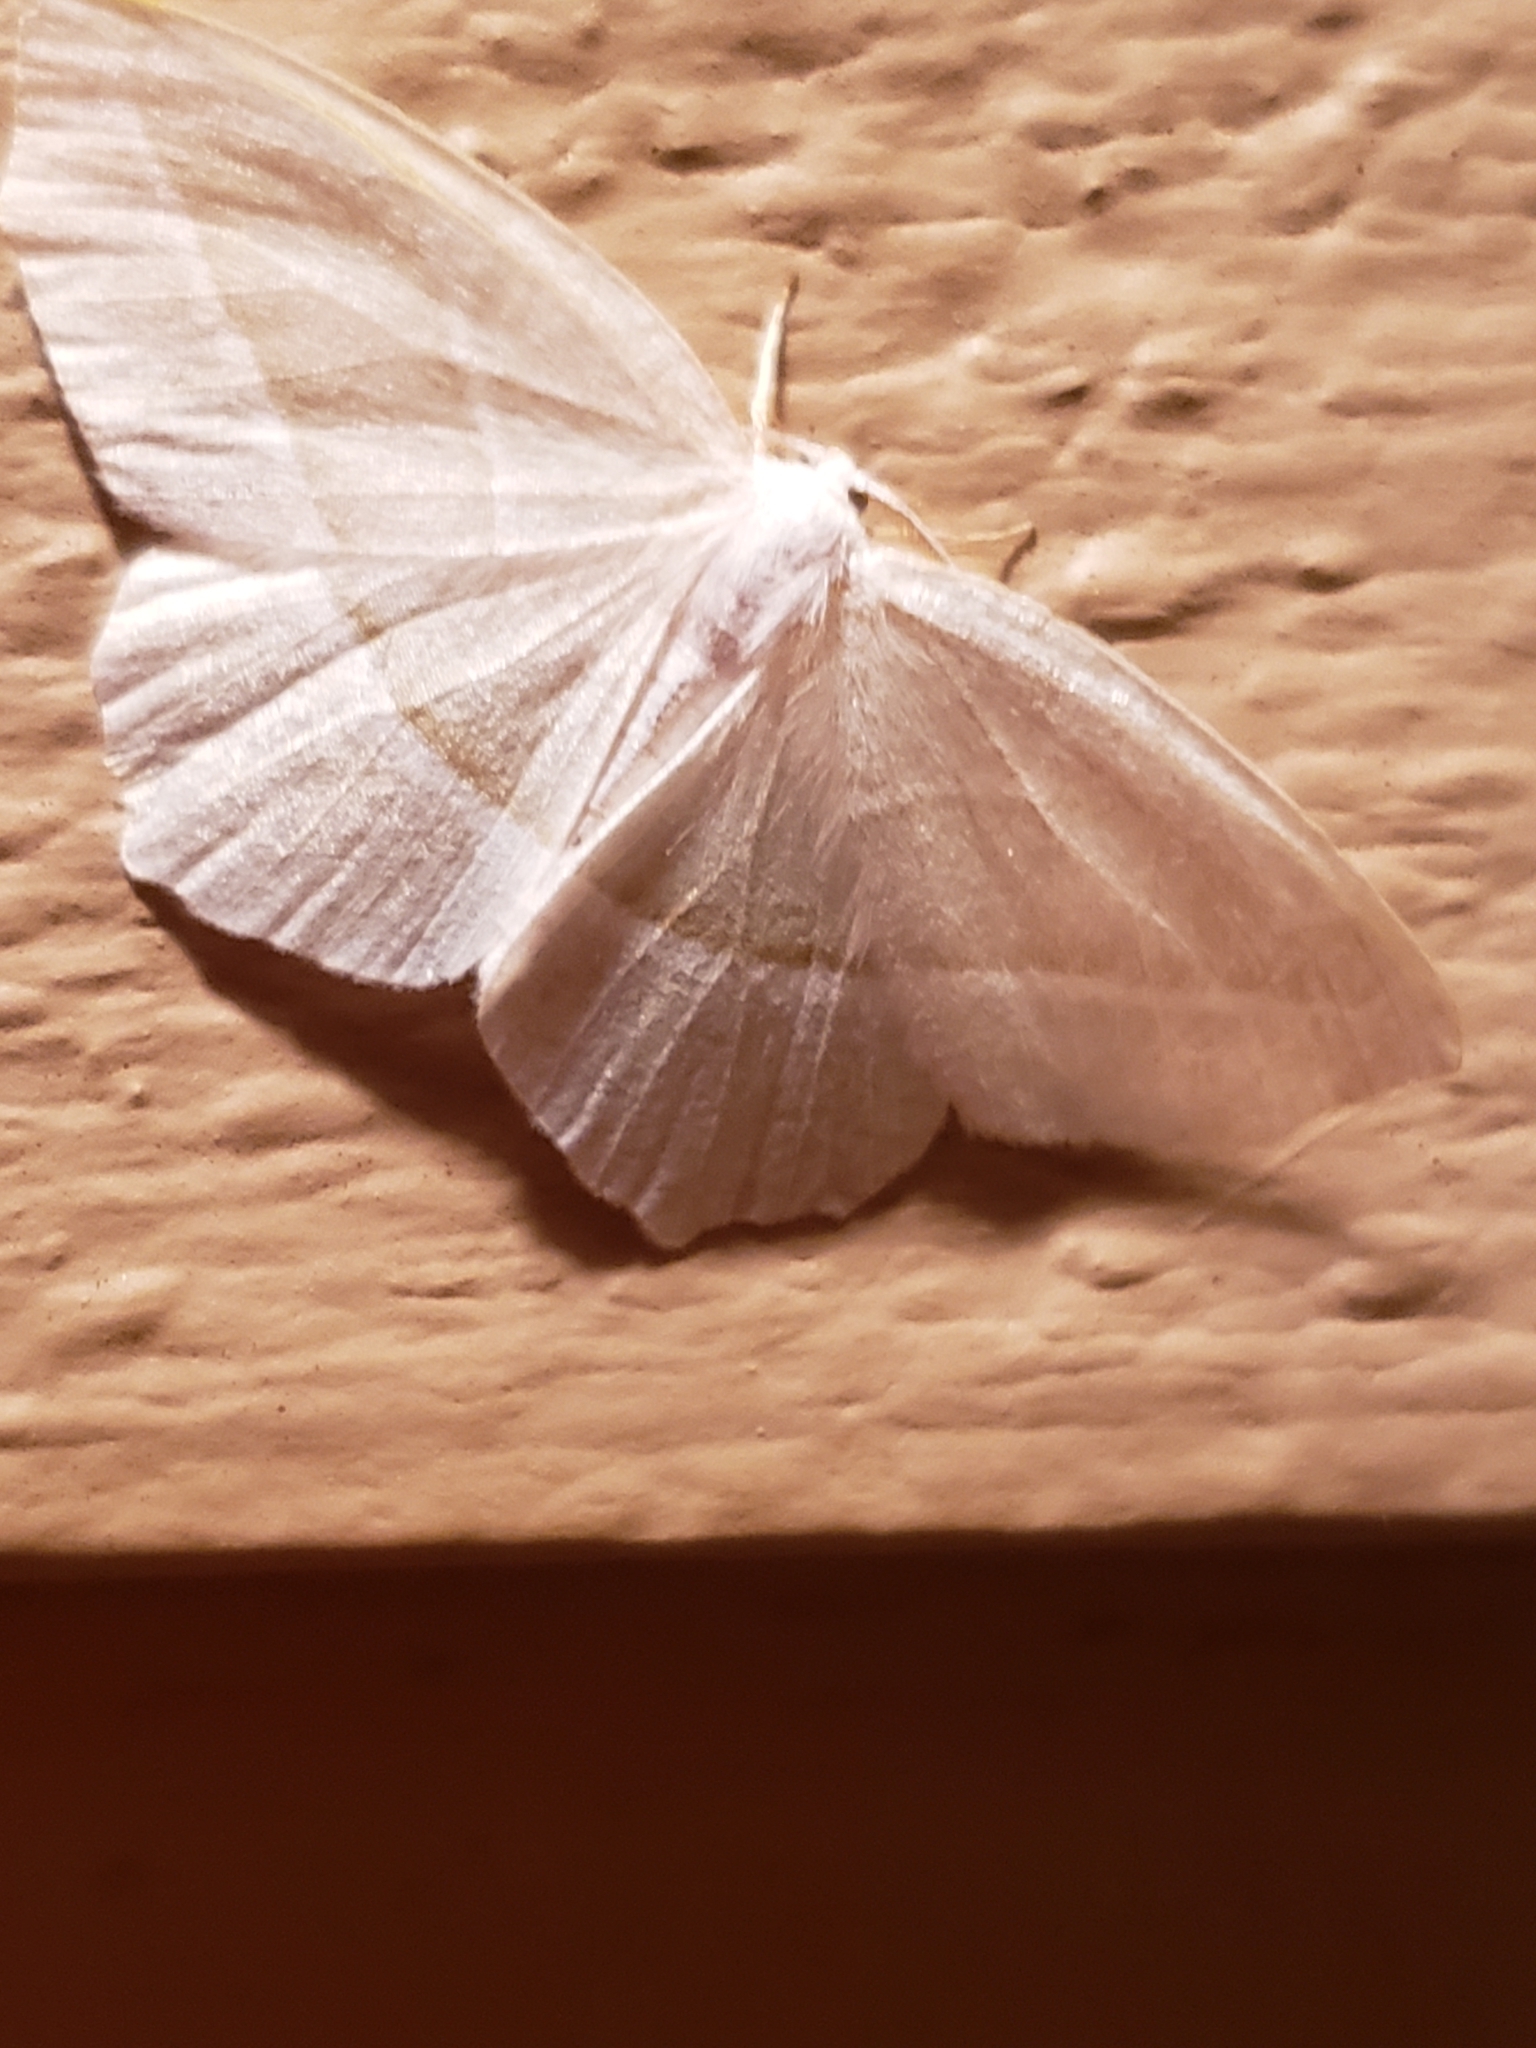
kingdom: Animalia
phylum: Arthropoda
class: Insecta
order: Lepidoptera
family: Geometridae
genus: Campaea
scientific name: Campaea perlata
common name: Fringed looper
